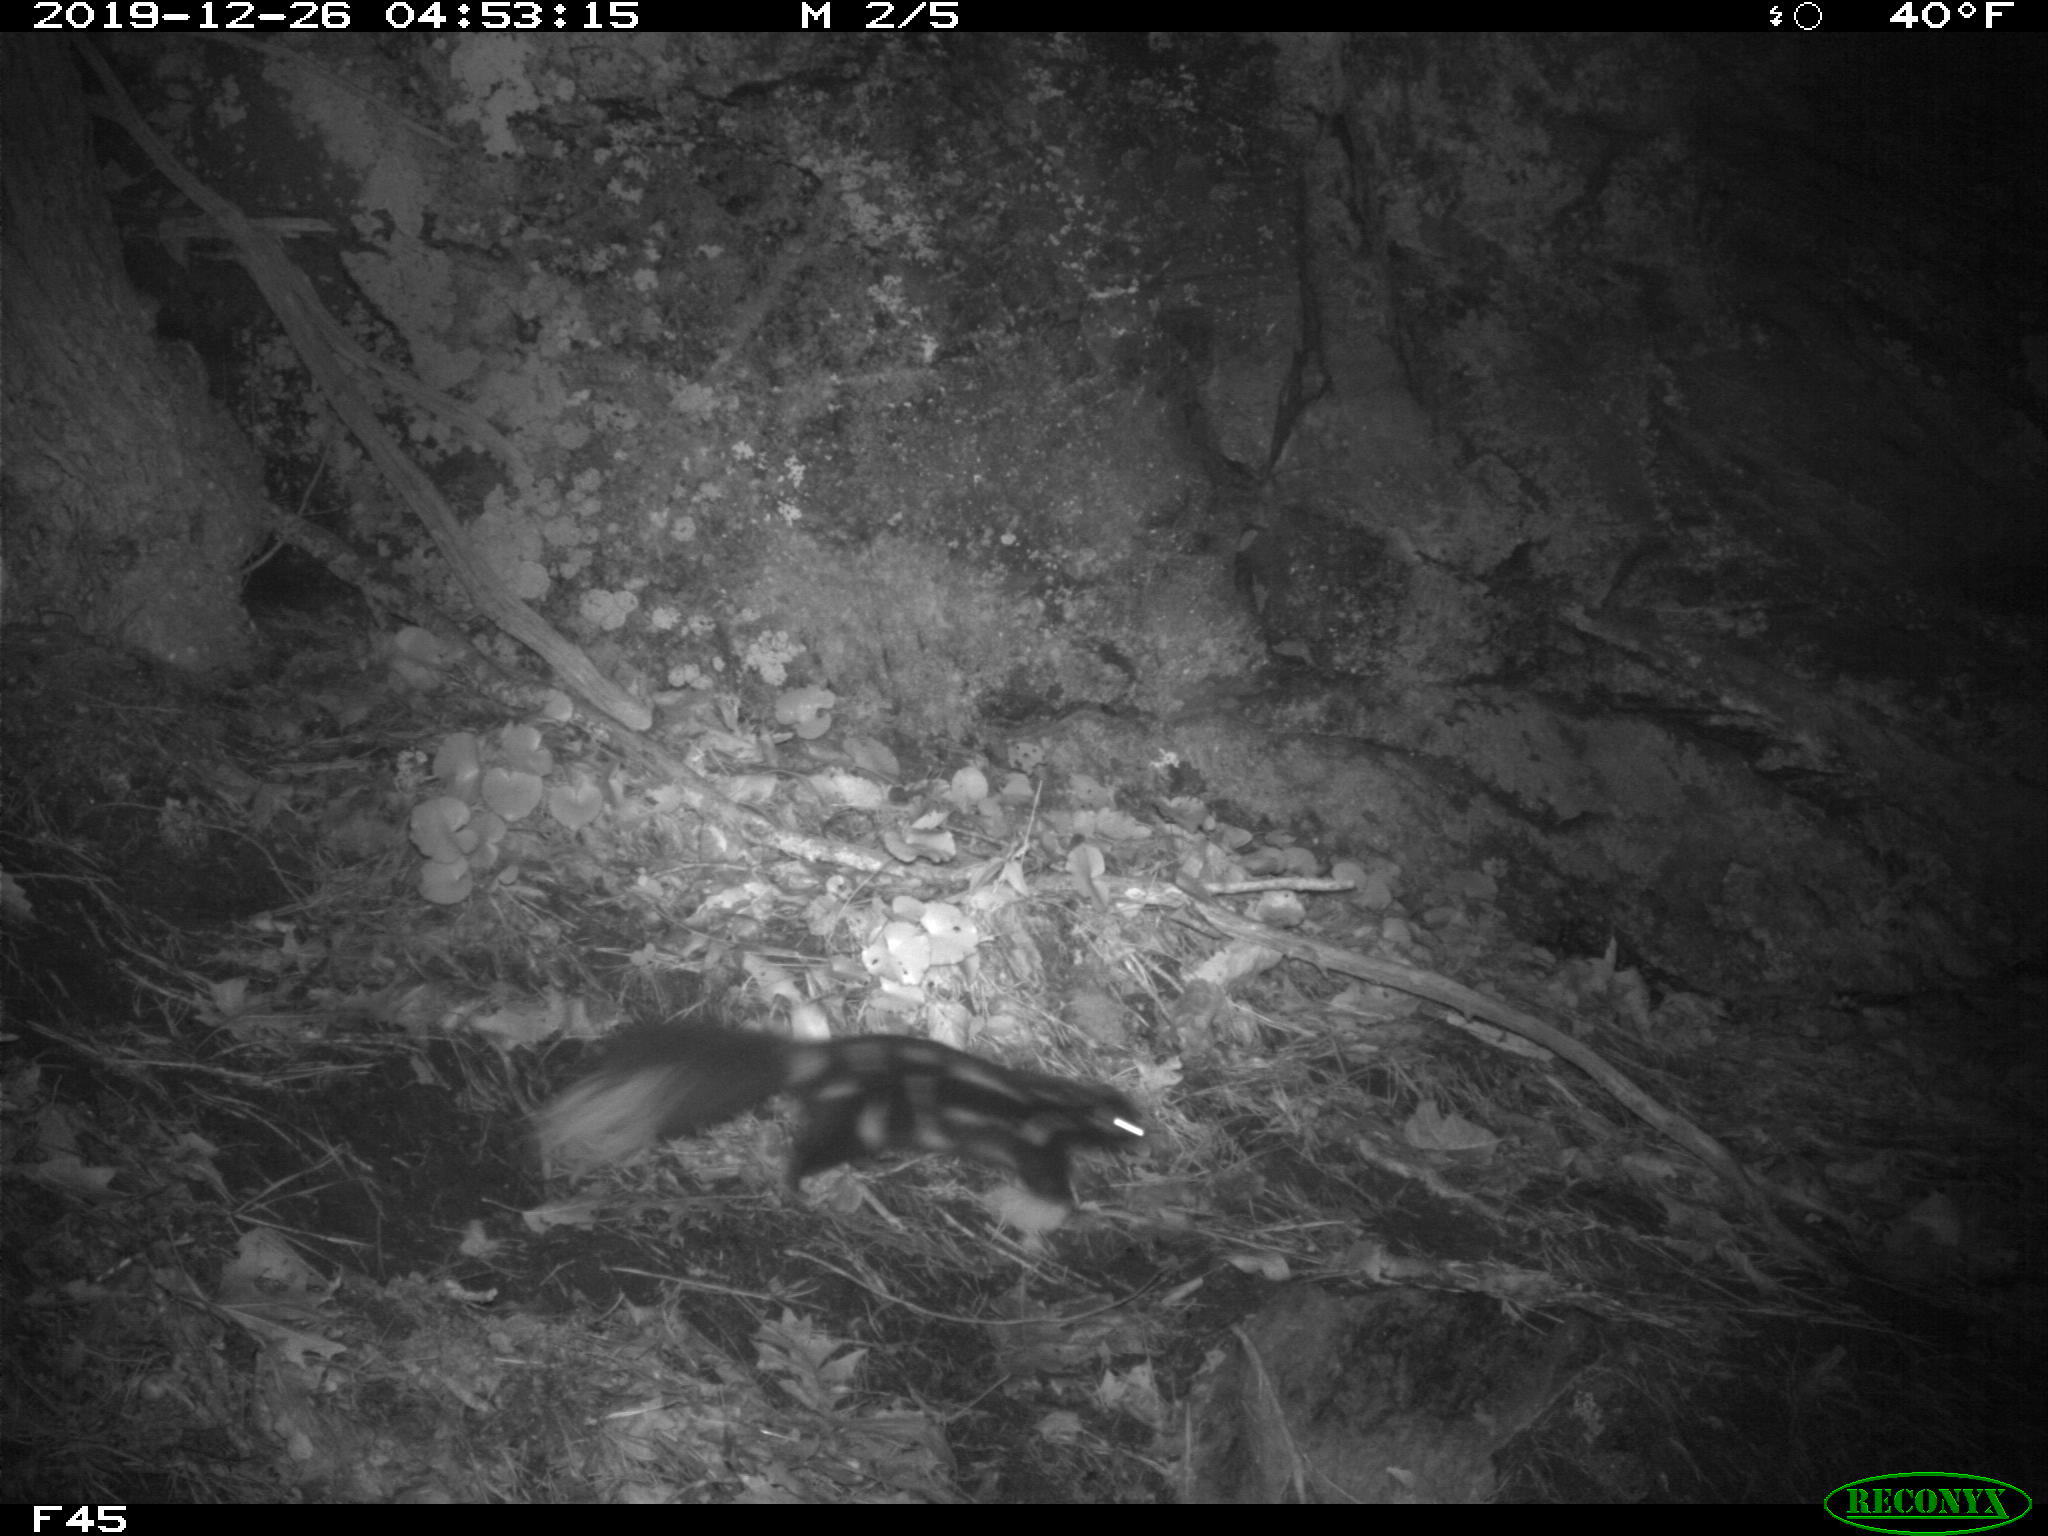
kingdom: Animalia
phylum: Chordata
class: Mammalia
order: Carnivora
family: Mephitidae
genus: Spilogale
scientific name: Spilogale putorius
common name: Eastern spotted skunk
